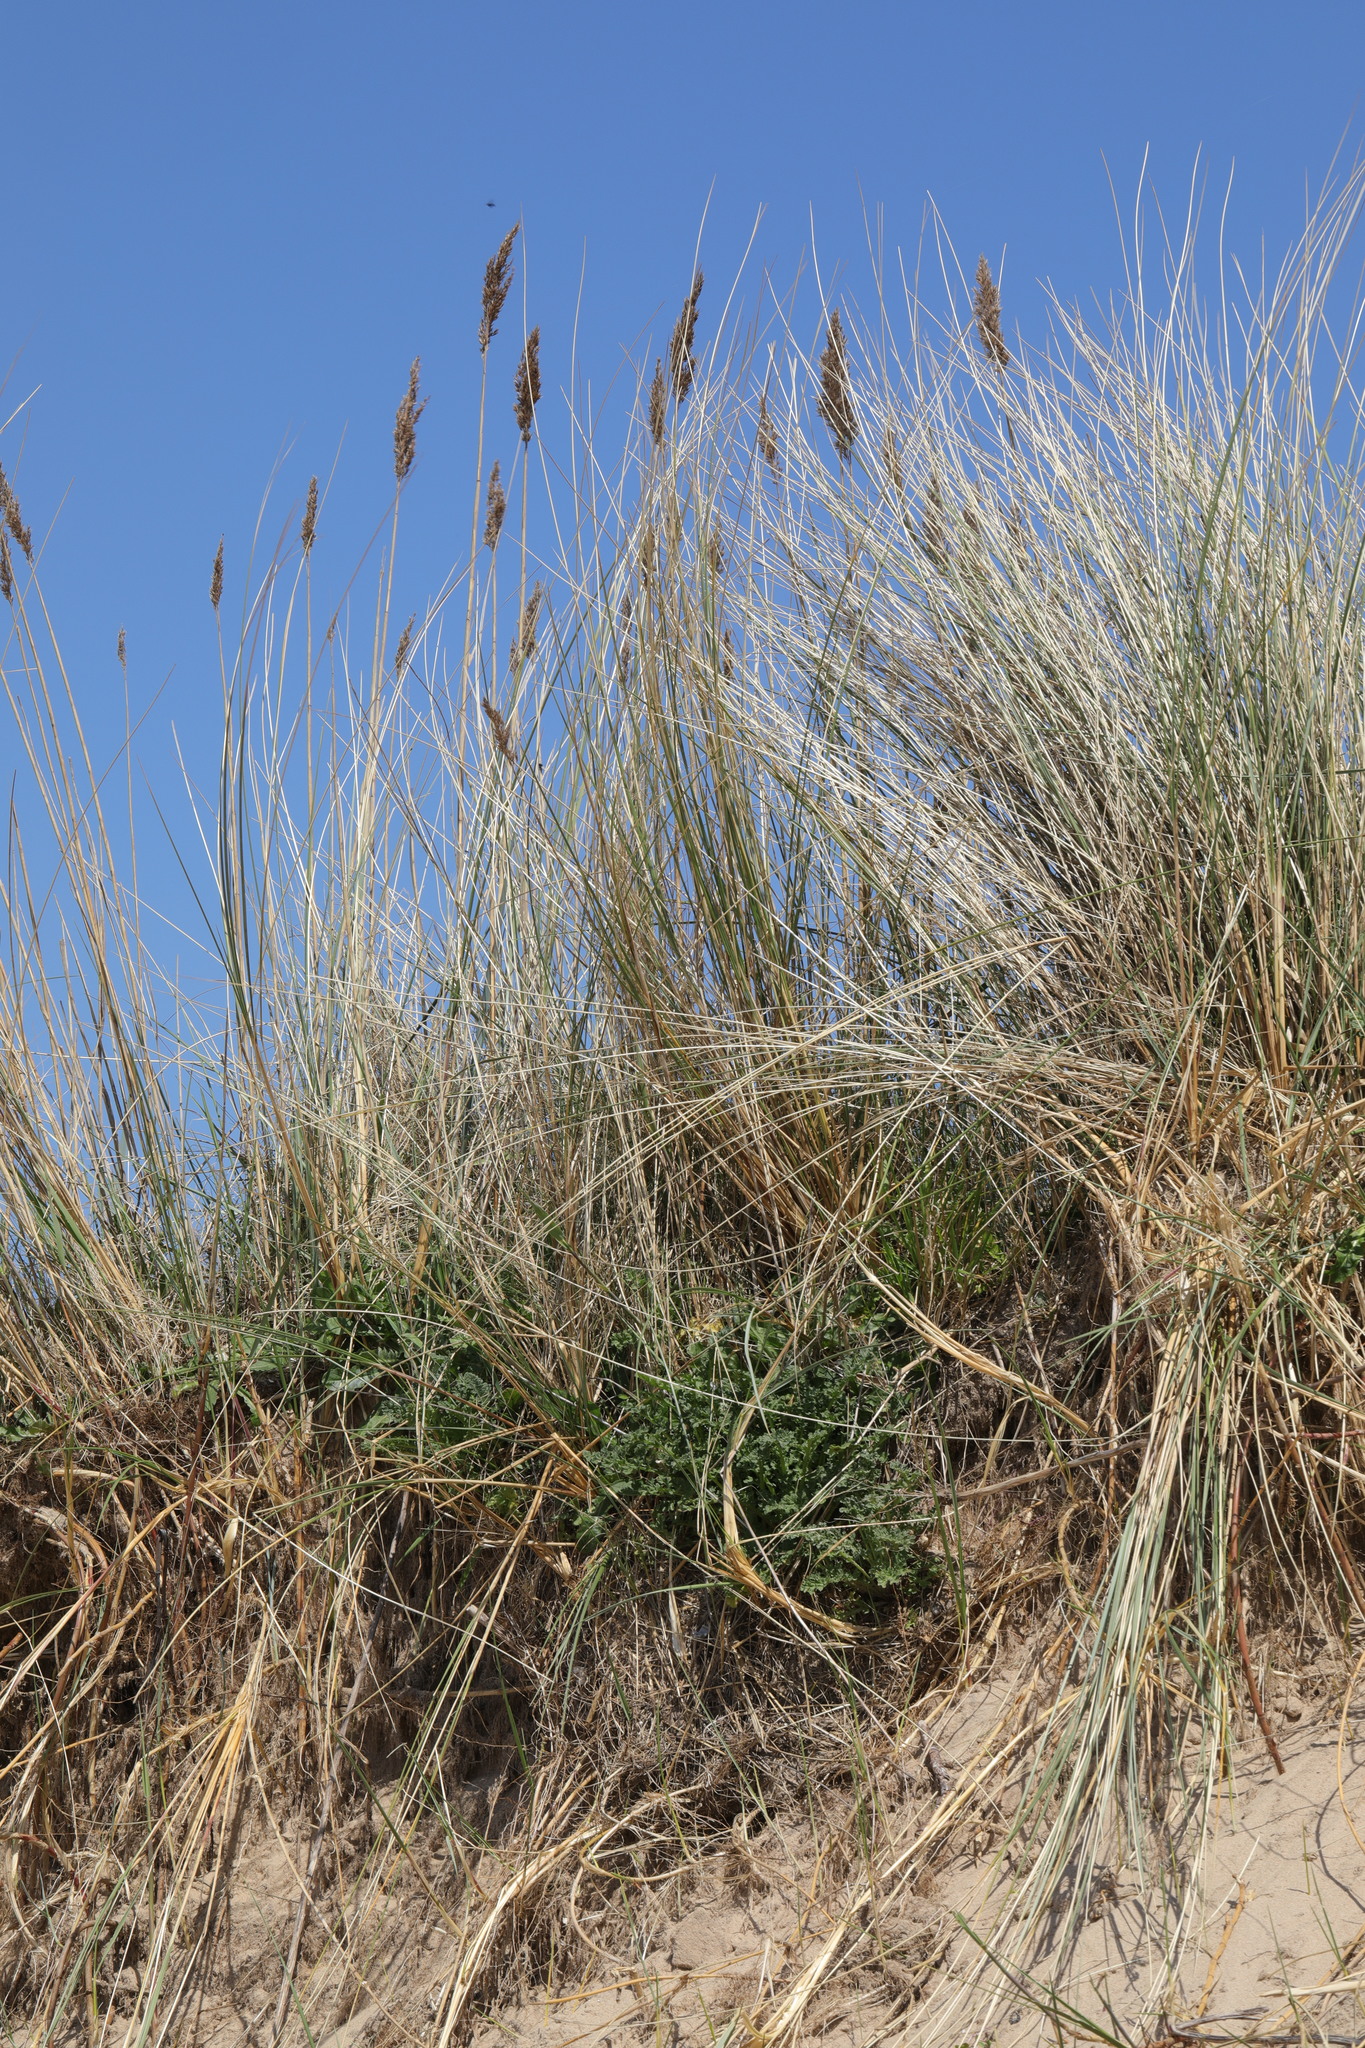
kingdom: Plantae
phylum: Tracheophyta
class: Liliopsida
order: Poales
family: Poaceae
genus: Phragmites
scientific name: Phragmites australis
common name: Common reed
